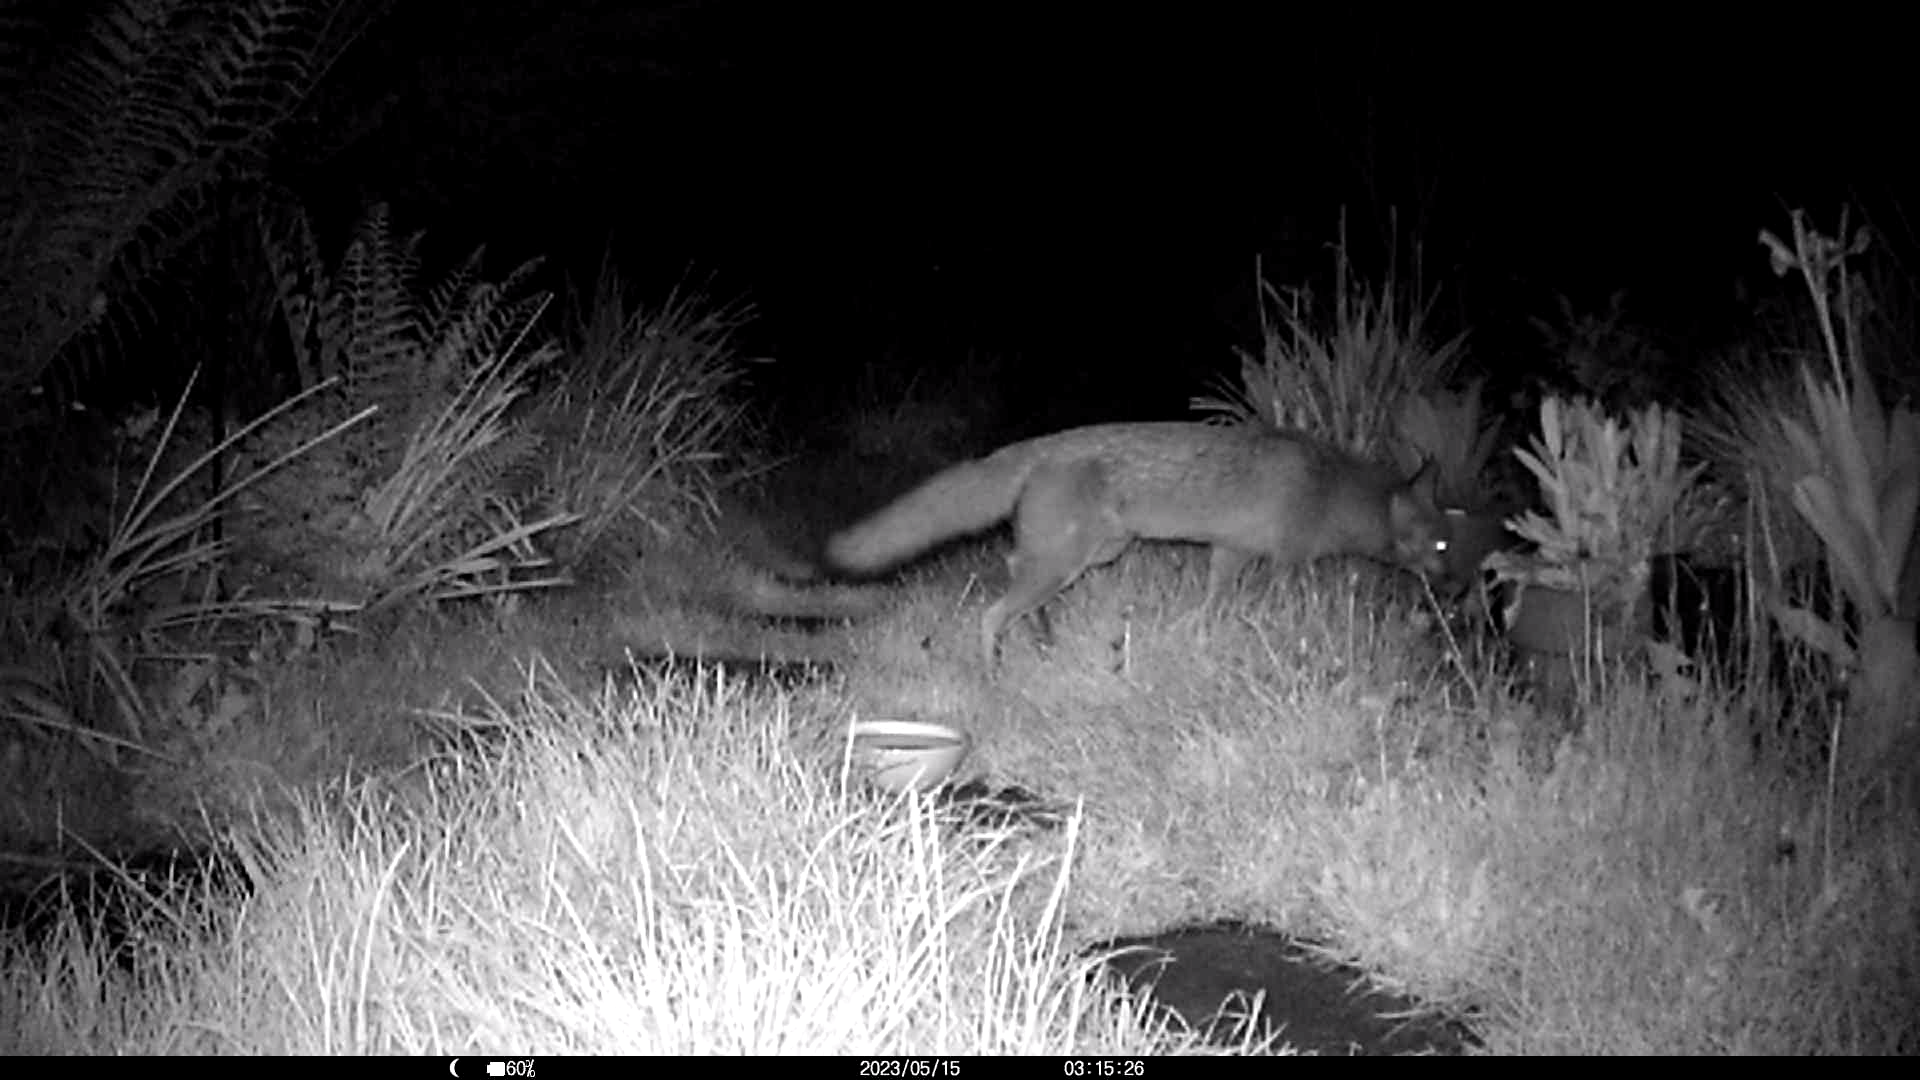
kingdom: Animalia
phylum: Chordata
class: Mammalia
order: Carnivora
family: Canidae
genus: Vulpes
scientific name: Vulpes vulpes
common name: Red fox
